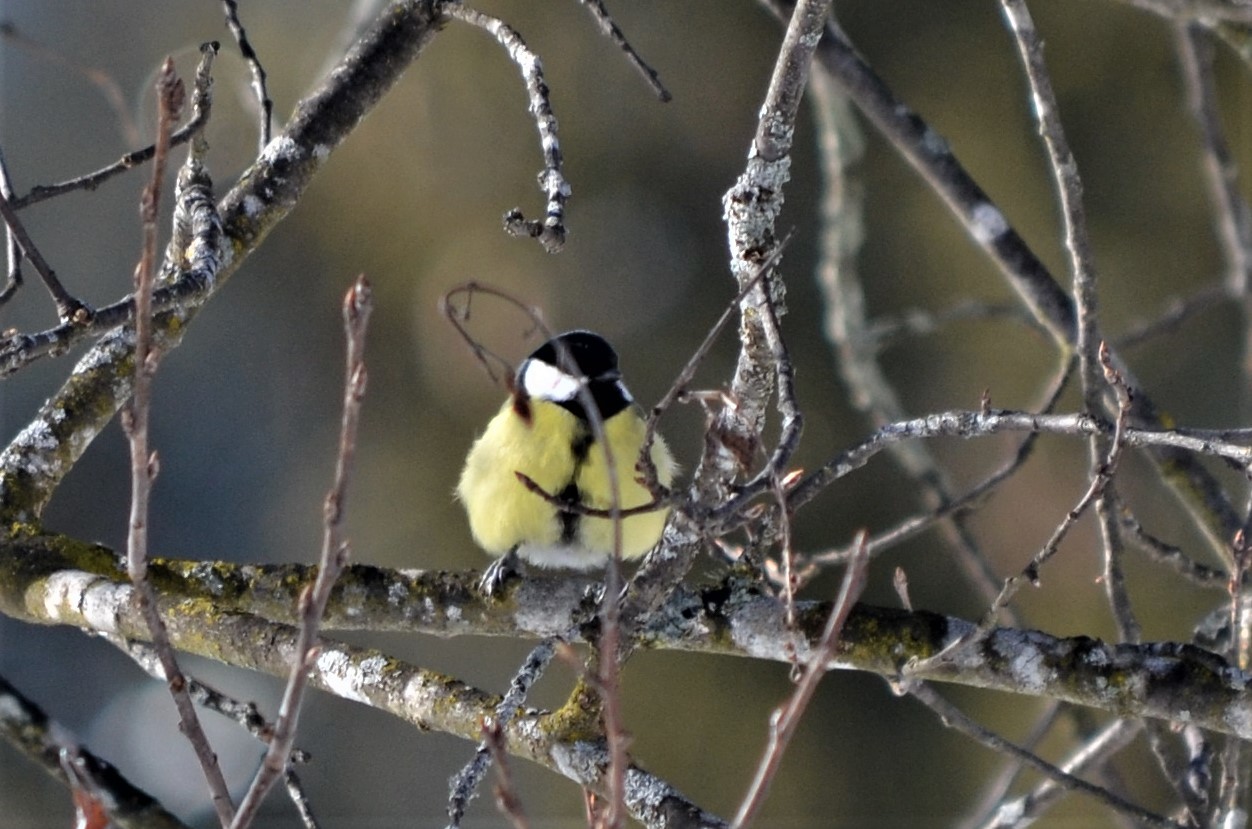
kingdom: Animalia
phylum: Chordata
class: Aves
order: Passeriformes
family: Paridae
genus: Parus
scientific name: Parus major
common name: Great tit
